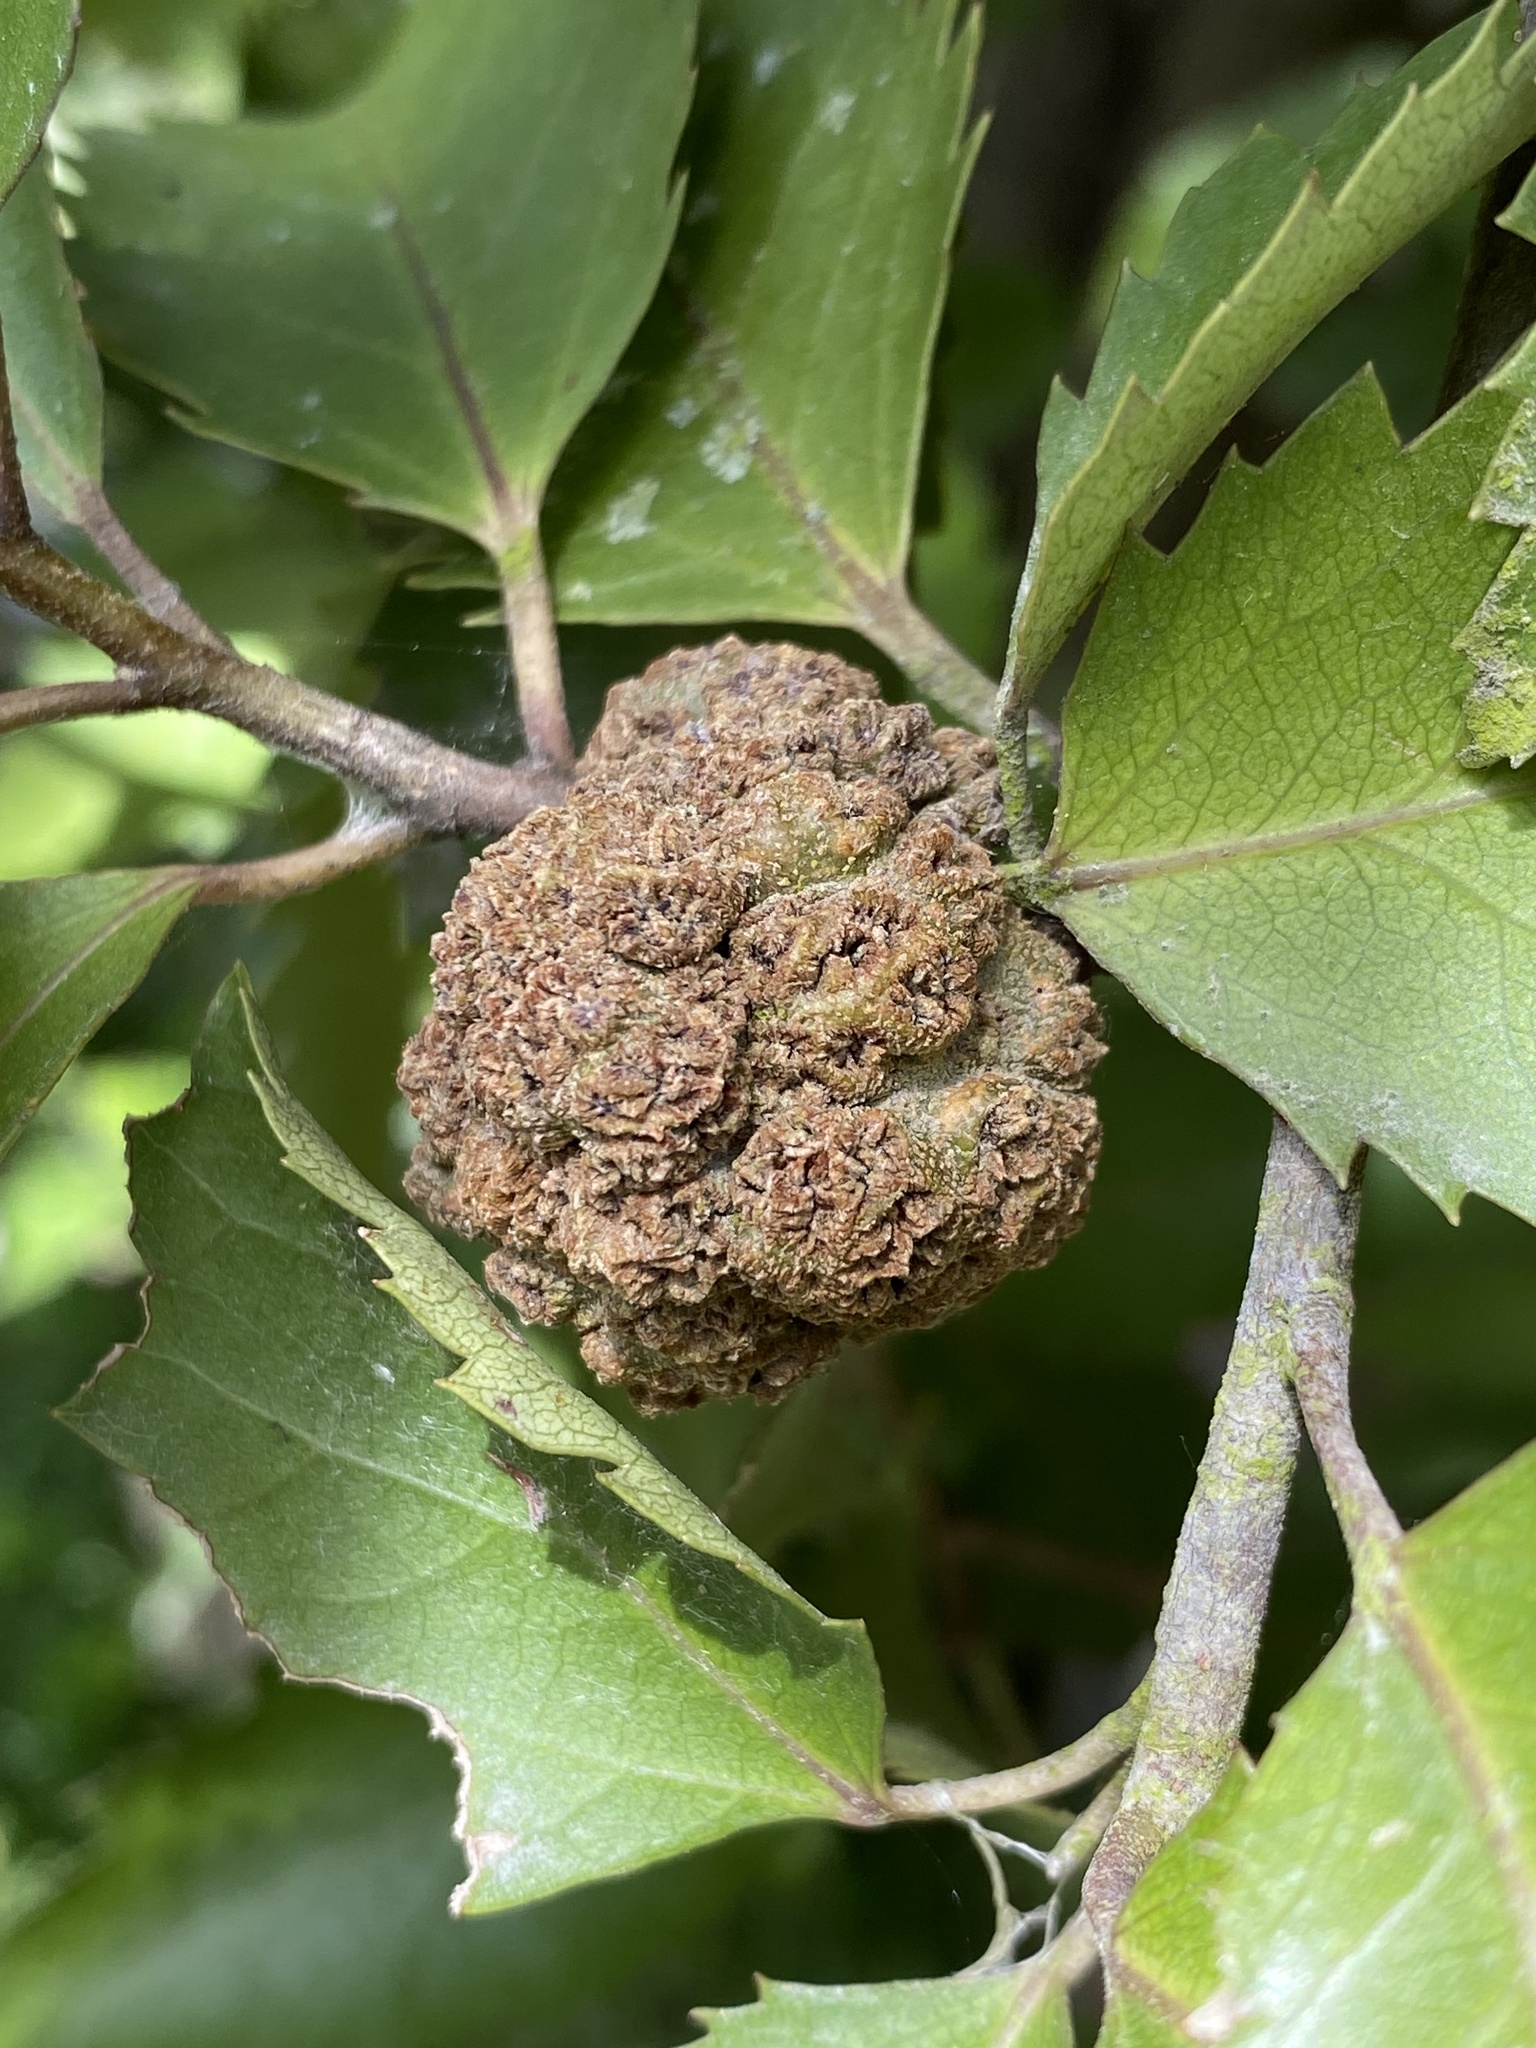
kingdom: Animalia
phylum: Arthropoda
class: Arachnida
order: Trombidiformes
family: Eriophyidae
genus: Eriophyes
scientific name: Eriophyes hoheriae
